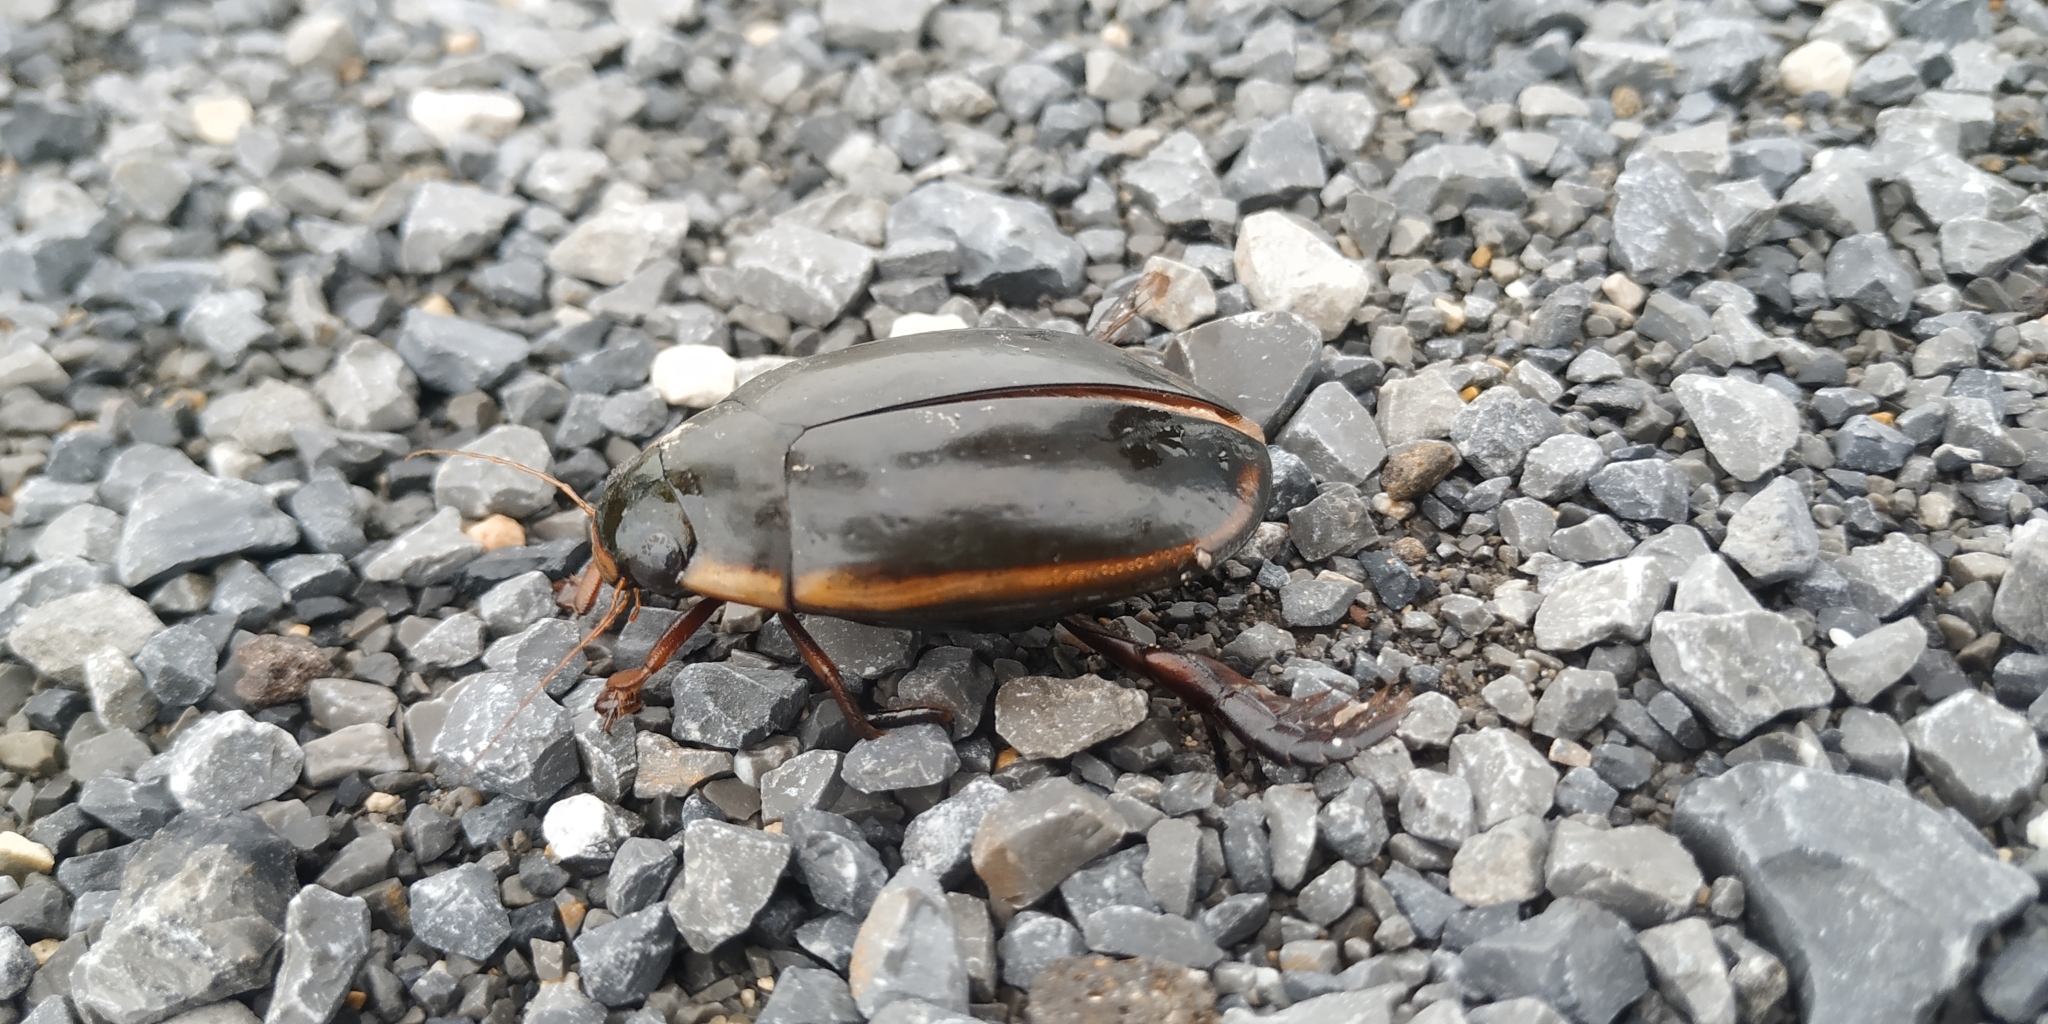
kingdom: Animalia
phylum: Arthropoda
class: Insecta
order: Coleoptera
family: Dytiscidae
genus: Cybister
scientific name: Cybister fimbriolatus
